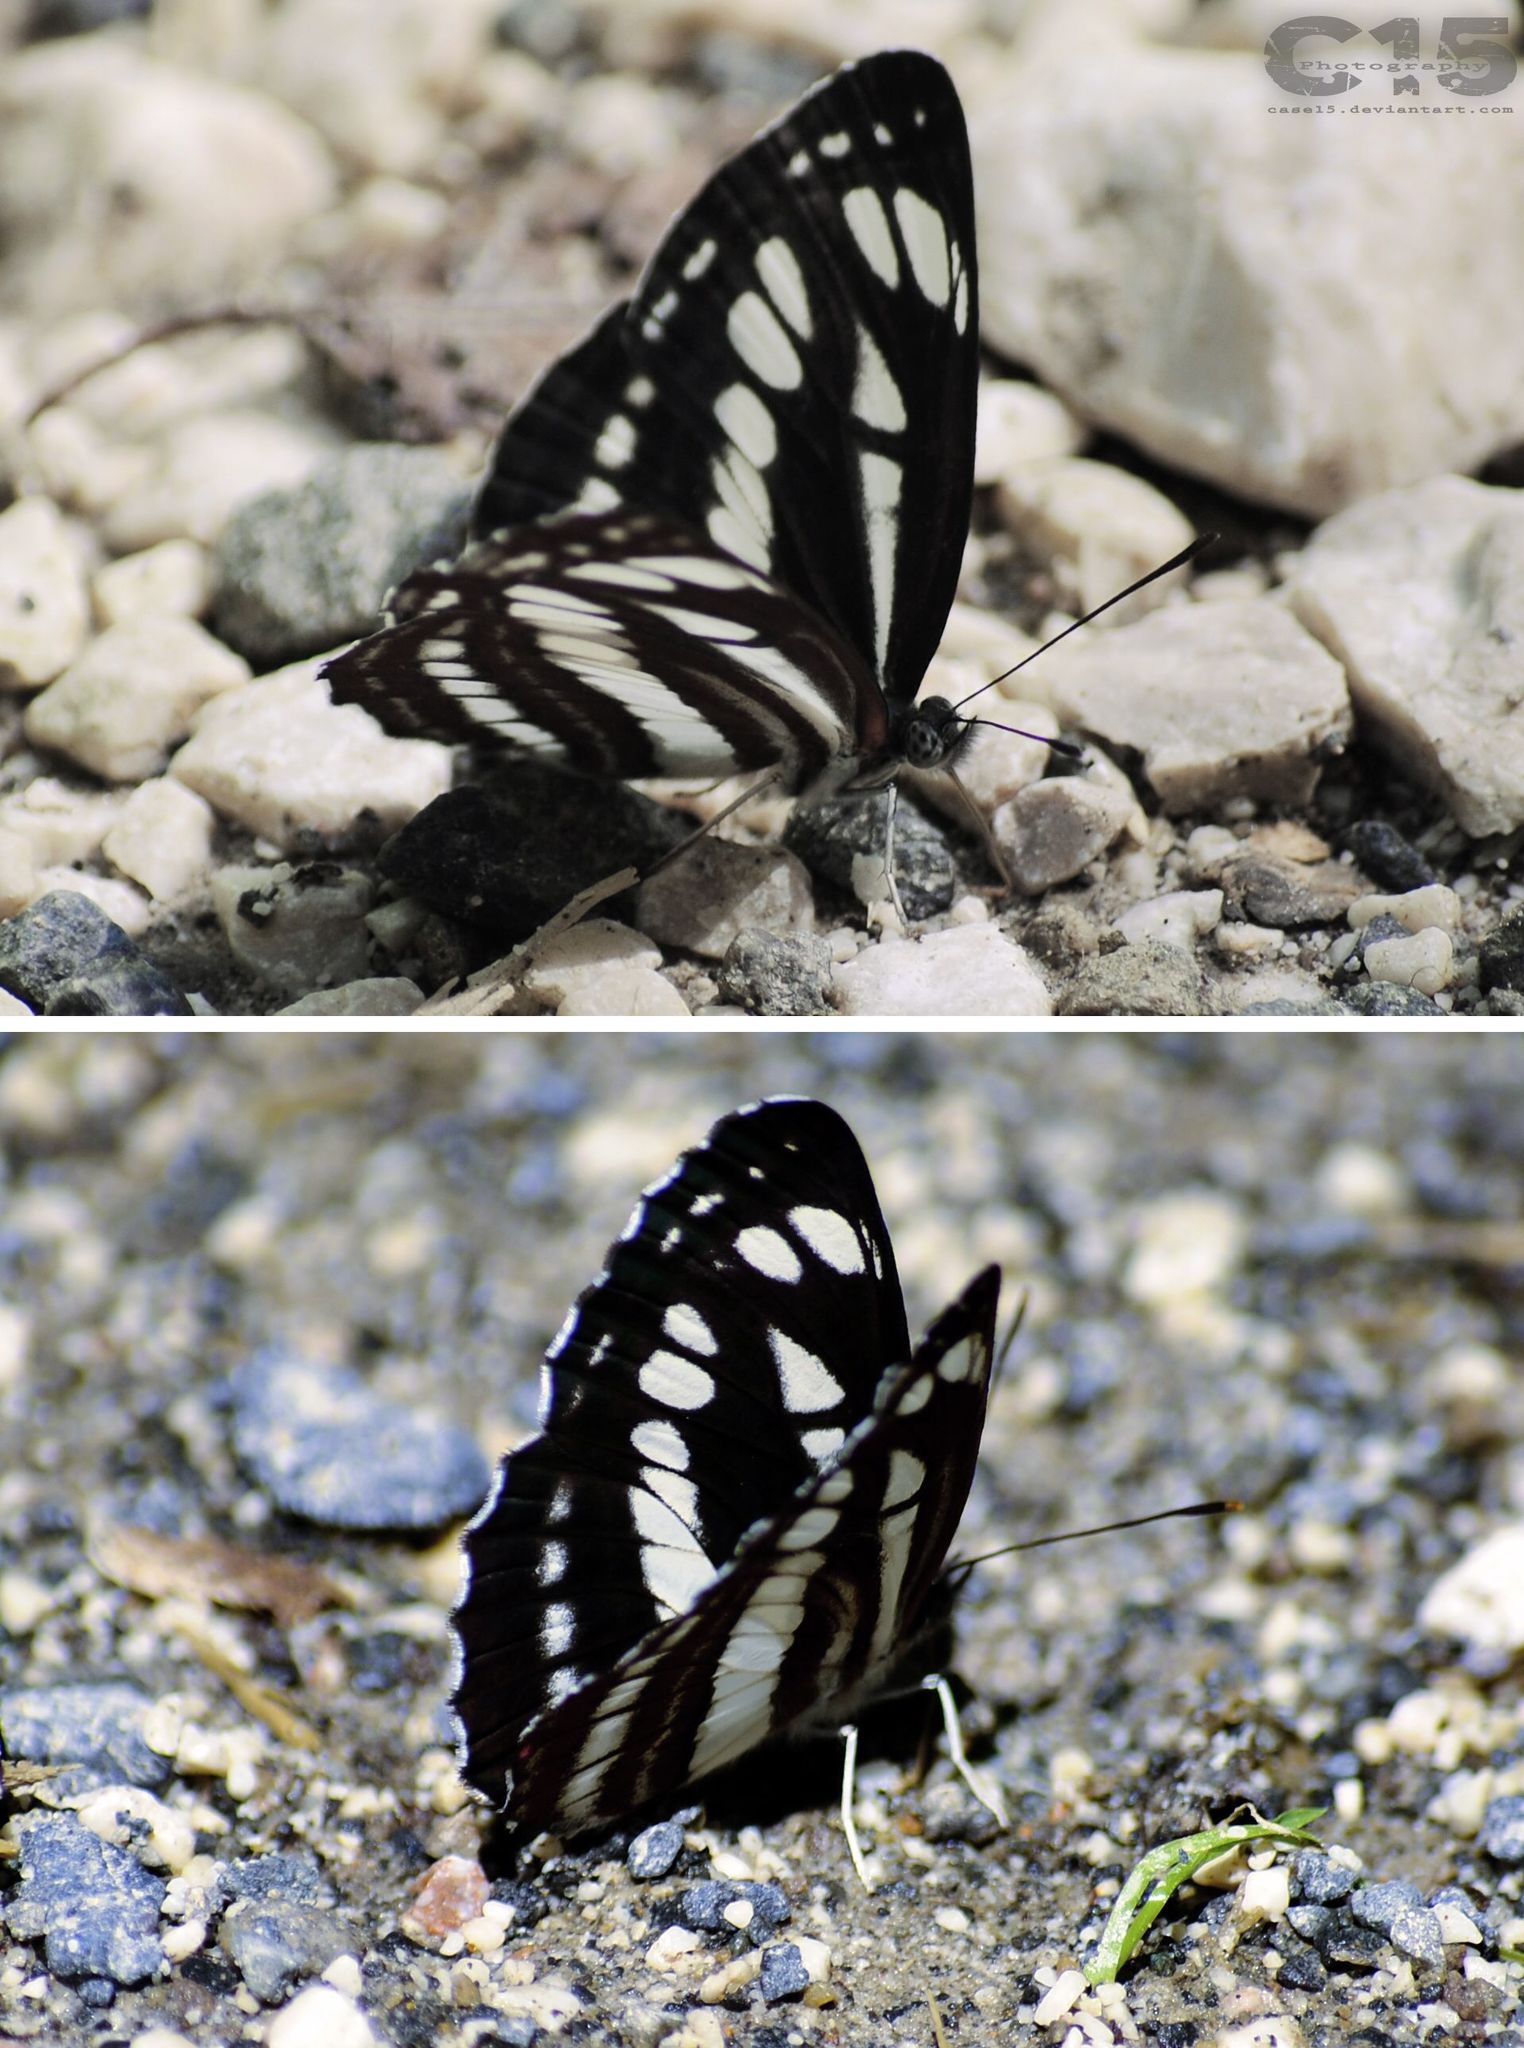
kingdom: Animalia
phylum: Arthropoda
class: Insecta
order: Lepidoptera
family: Nymphalidae
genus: Neptis
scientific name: Neptis sappho
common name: Common glider
